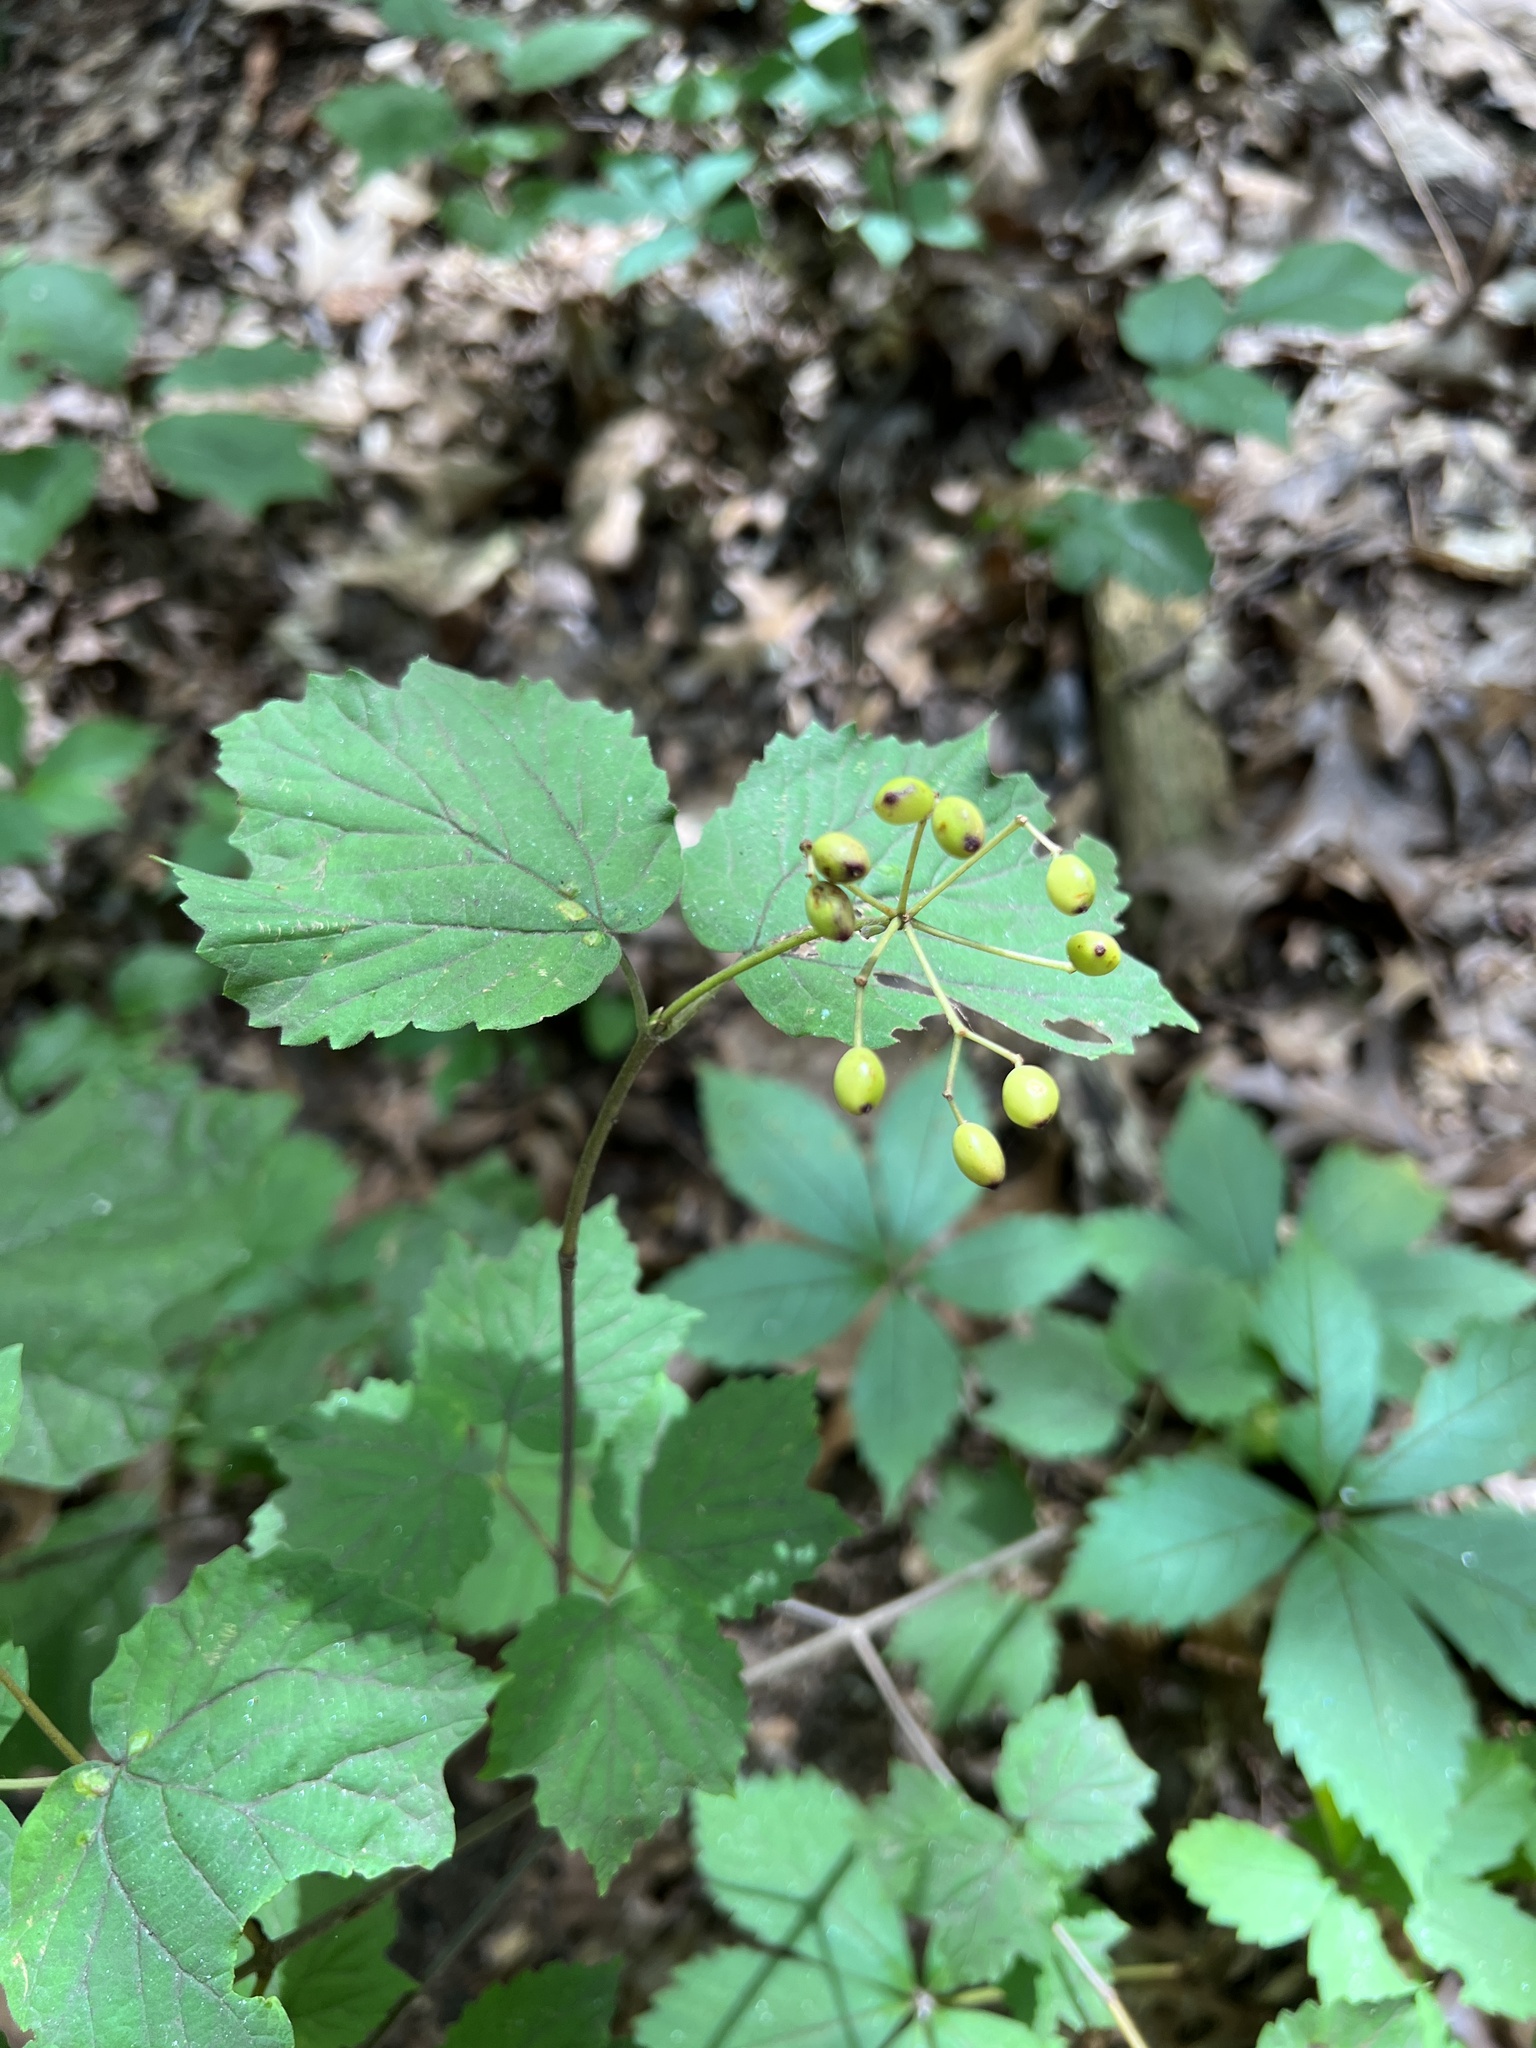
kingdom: Plantae
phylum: Tracheophyta
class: Magnoliopsida
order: Dipsacales
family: Viburnaceae
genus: Viburnum
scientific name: Viburnum acerifolium
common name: Dockmackie
